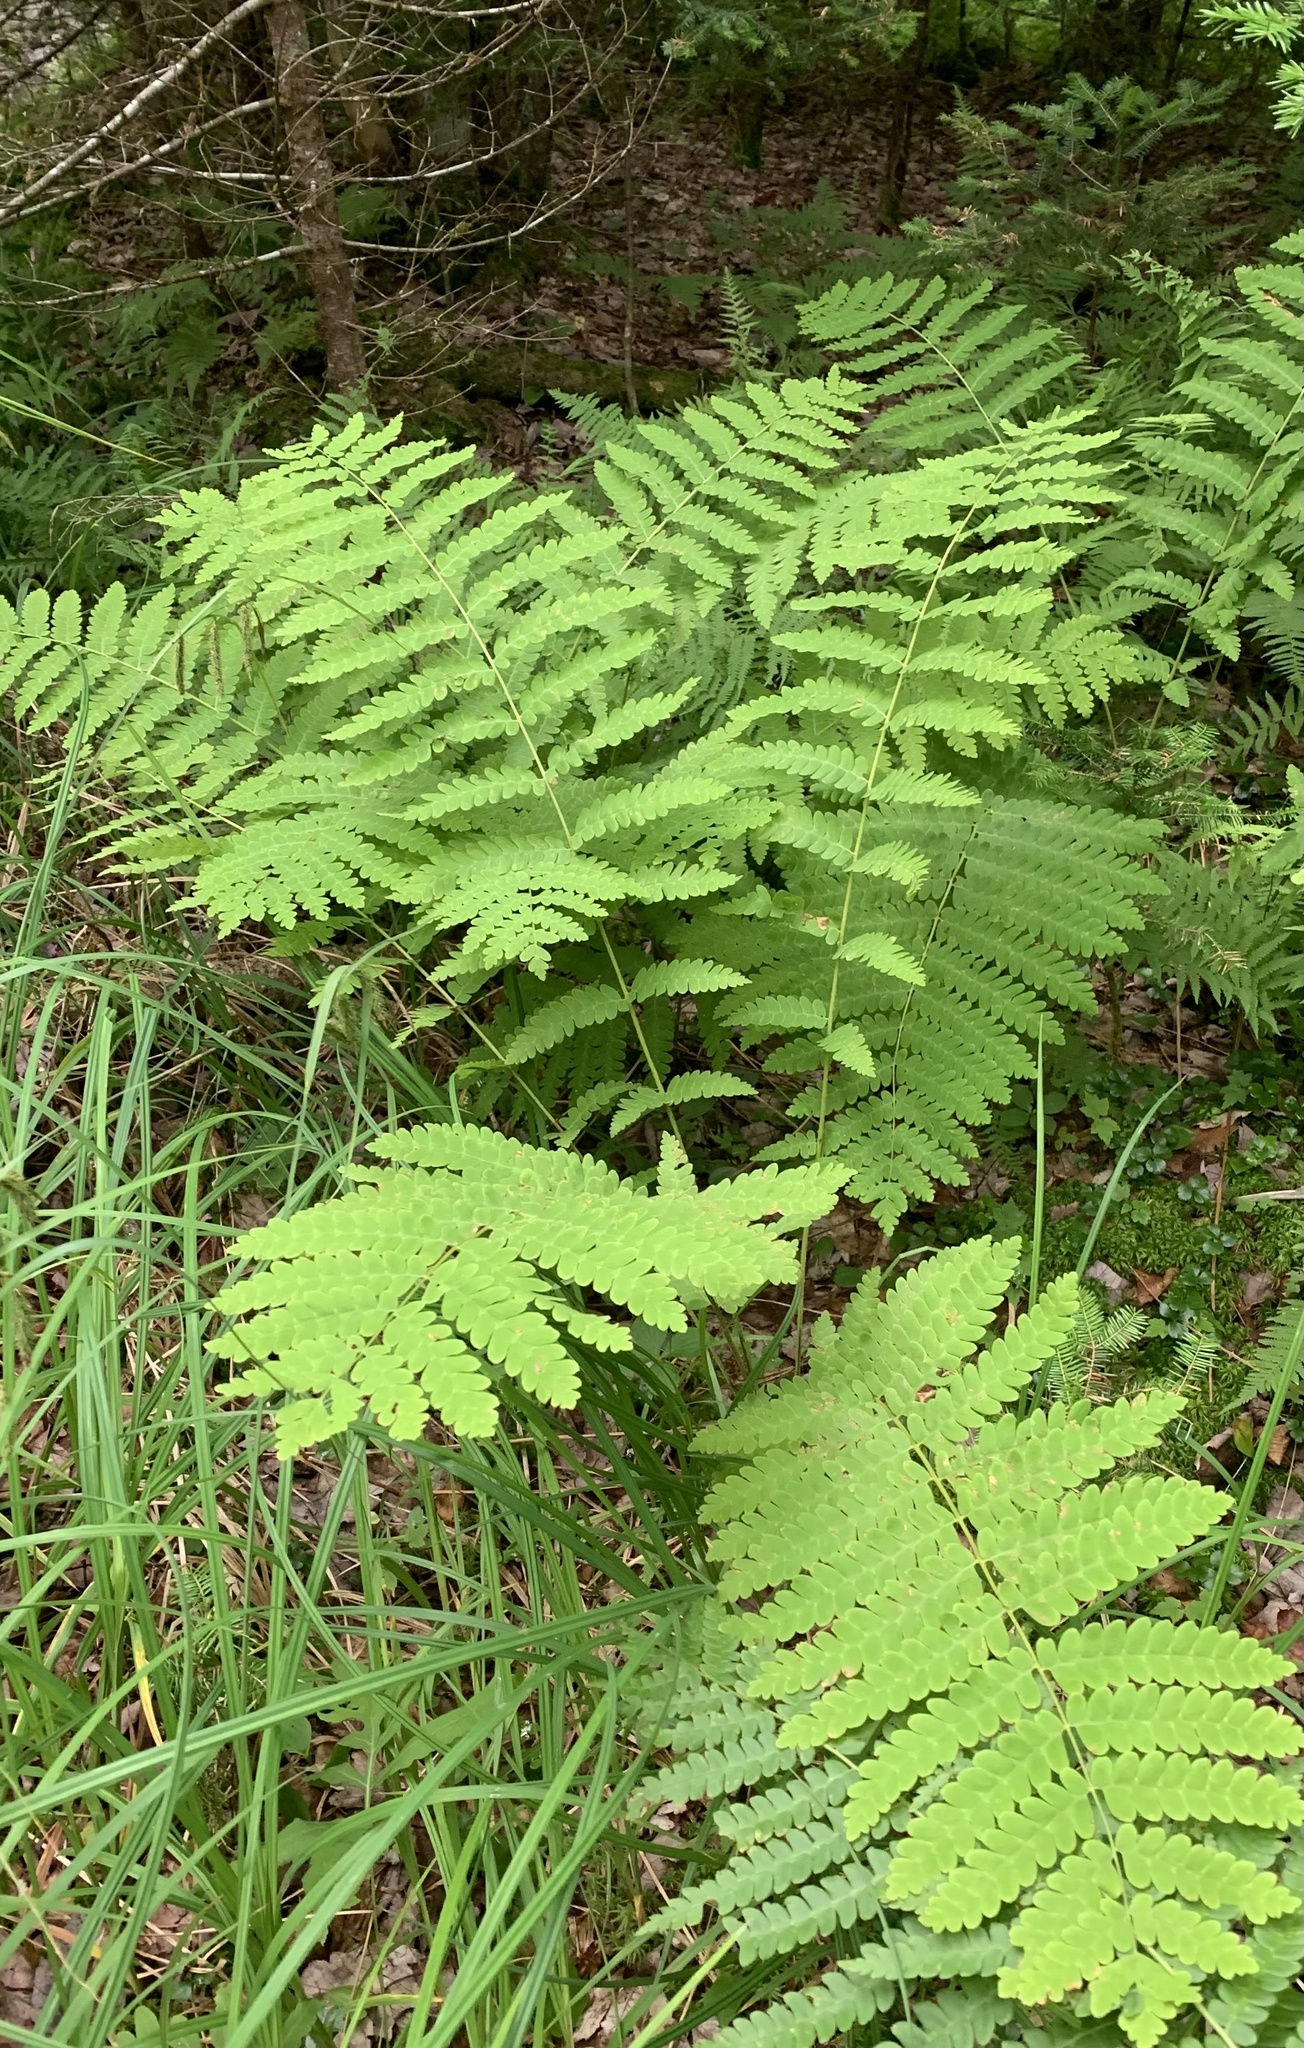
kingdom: Plantae
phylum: Tracheophyta
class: Polypodiopsida
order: Osmundales
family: Osmundaceae
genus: Claytosmunda
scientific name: Claytosmunda claytoniana
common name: Clayton's fern
